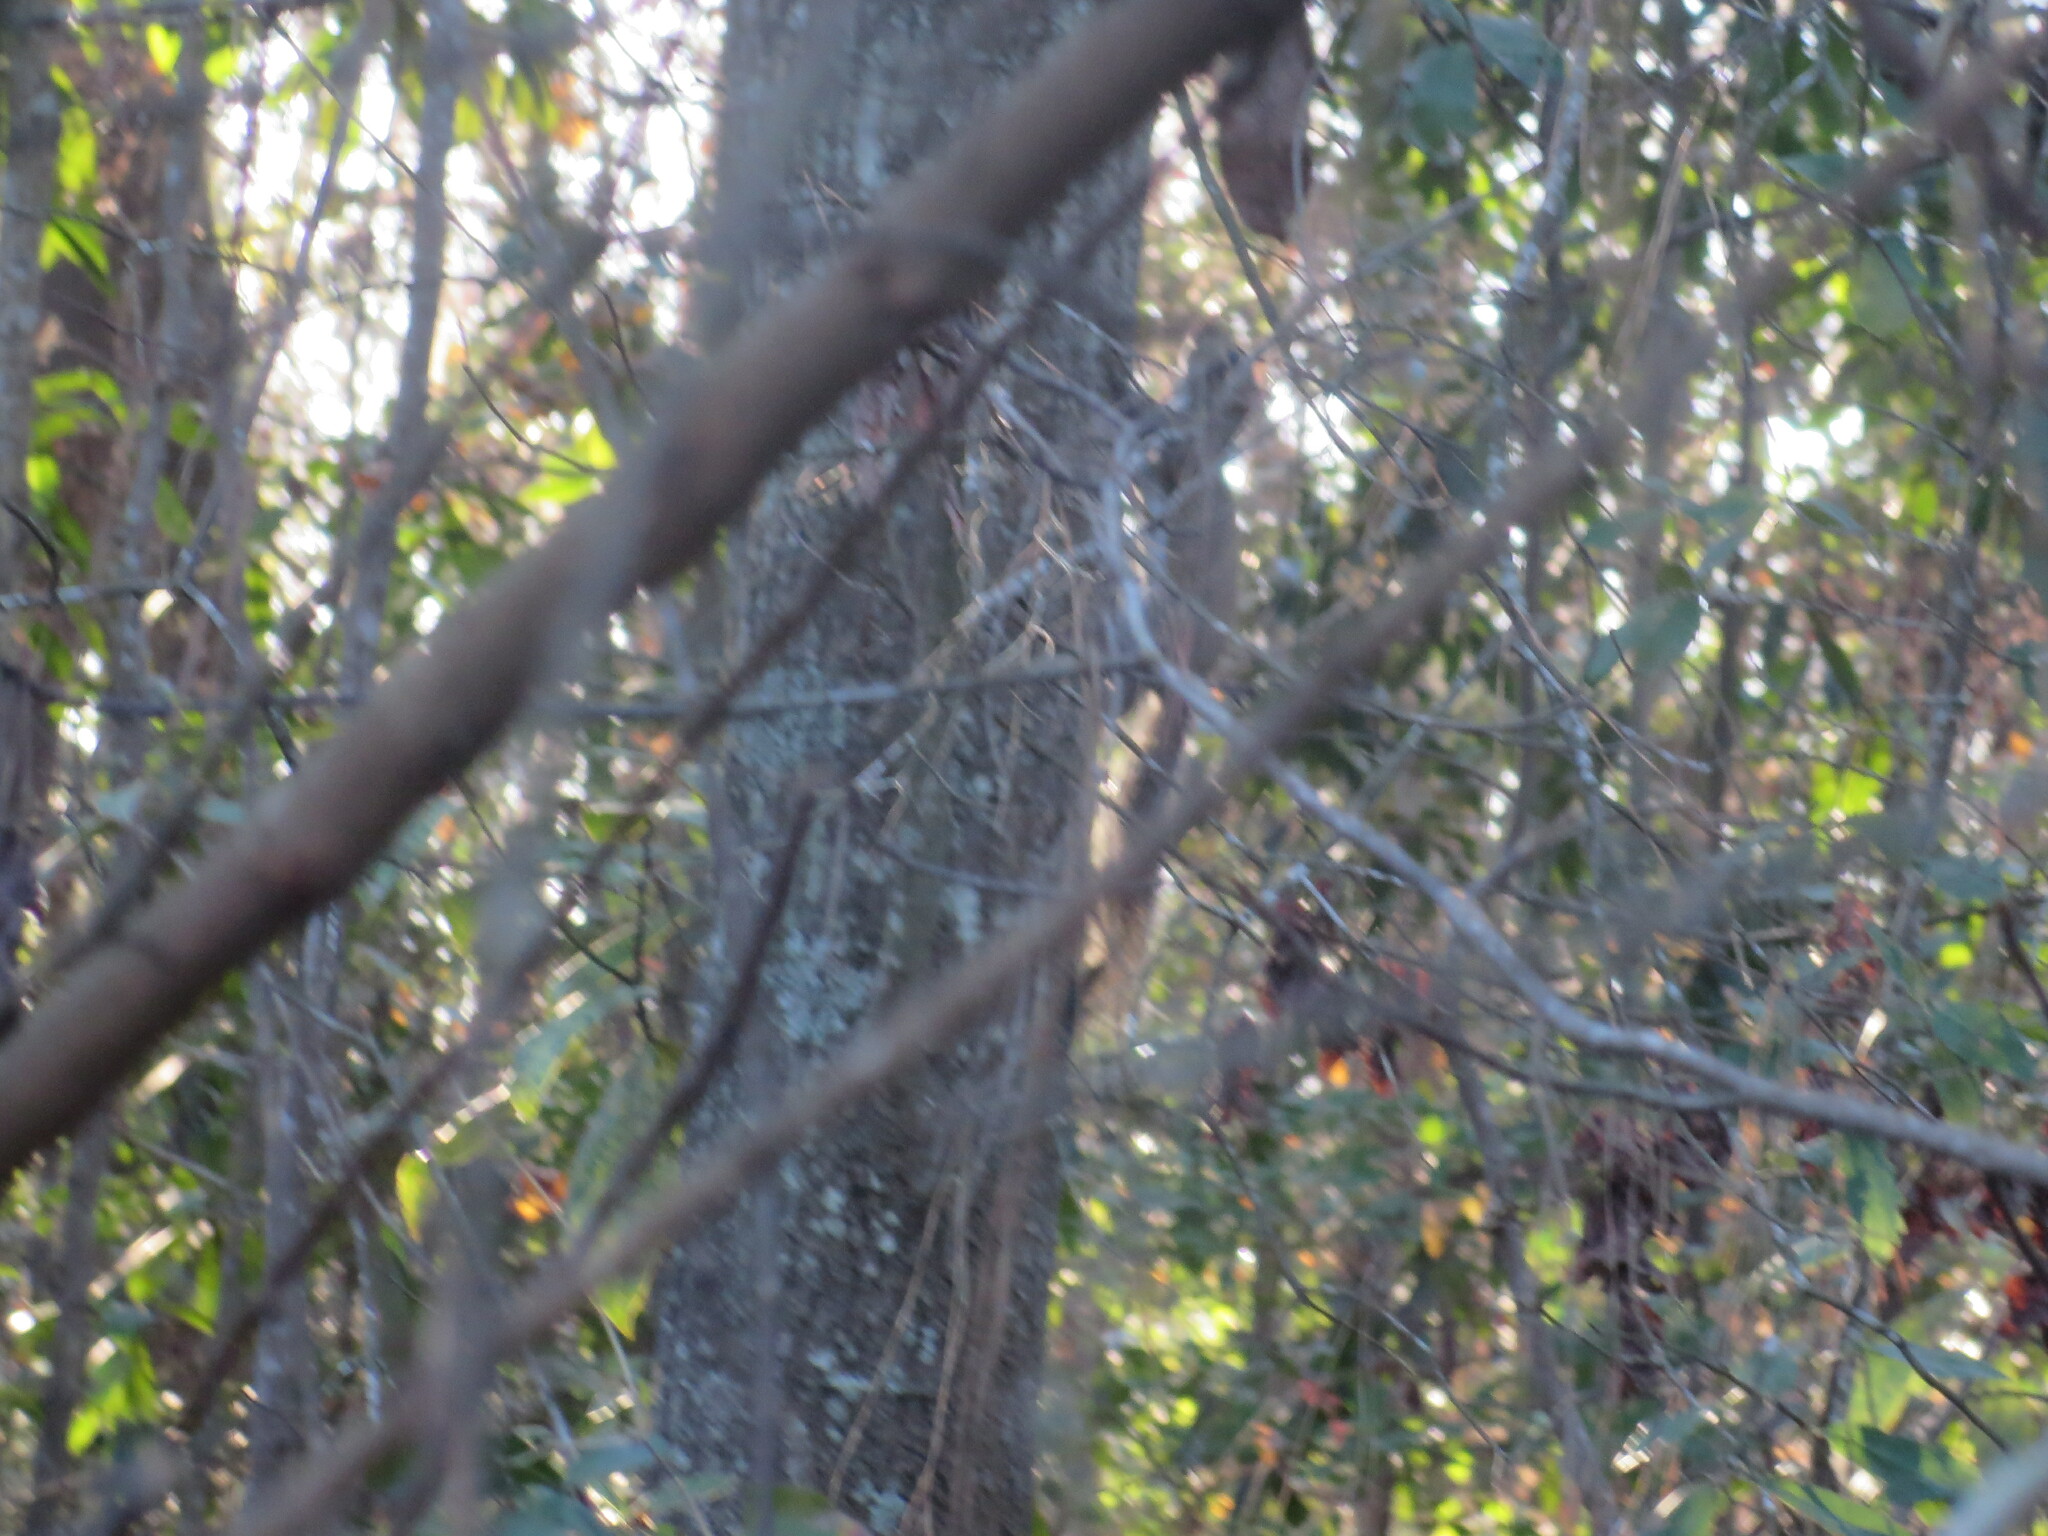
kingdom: Animalia
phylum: Chordata
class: Mammalia
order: Rodentia
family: Sciuridae
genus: Sciurus
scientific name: Sciurus carolinensis
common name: Eastern gray squirrel
